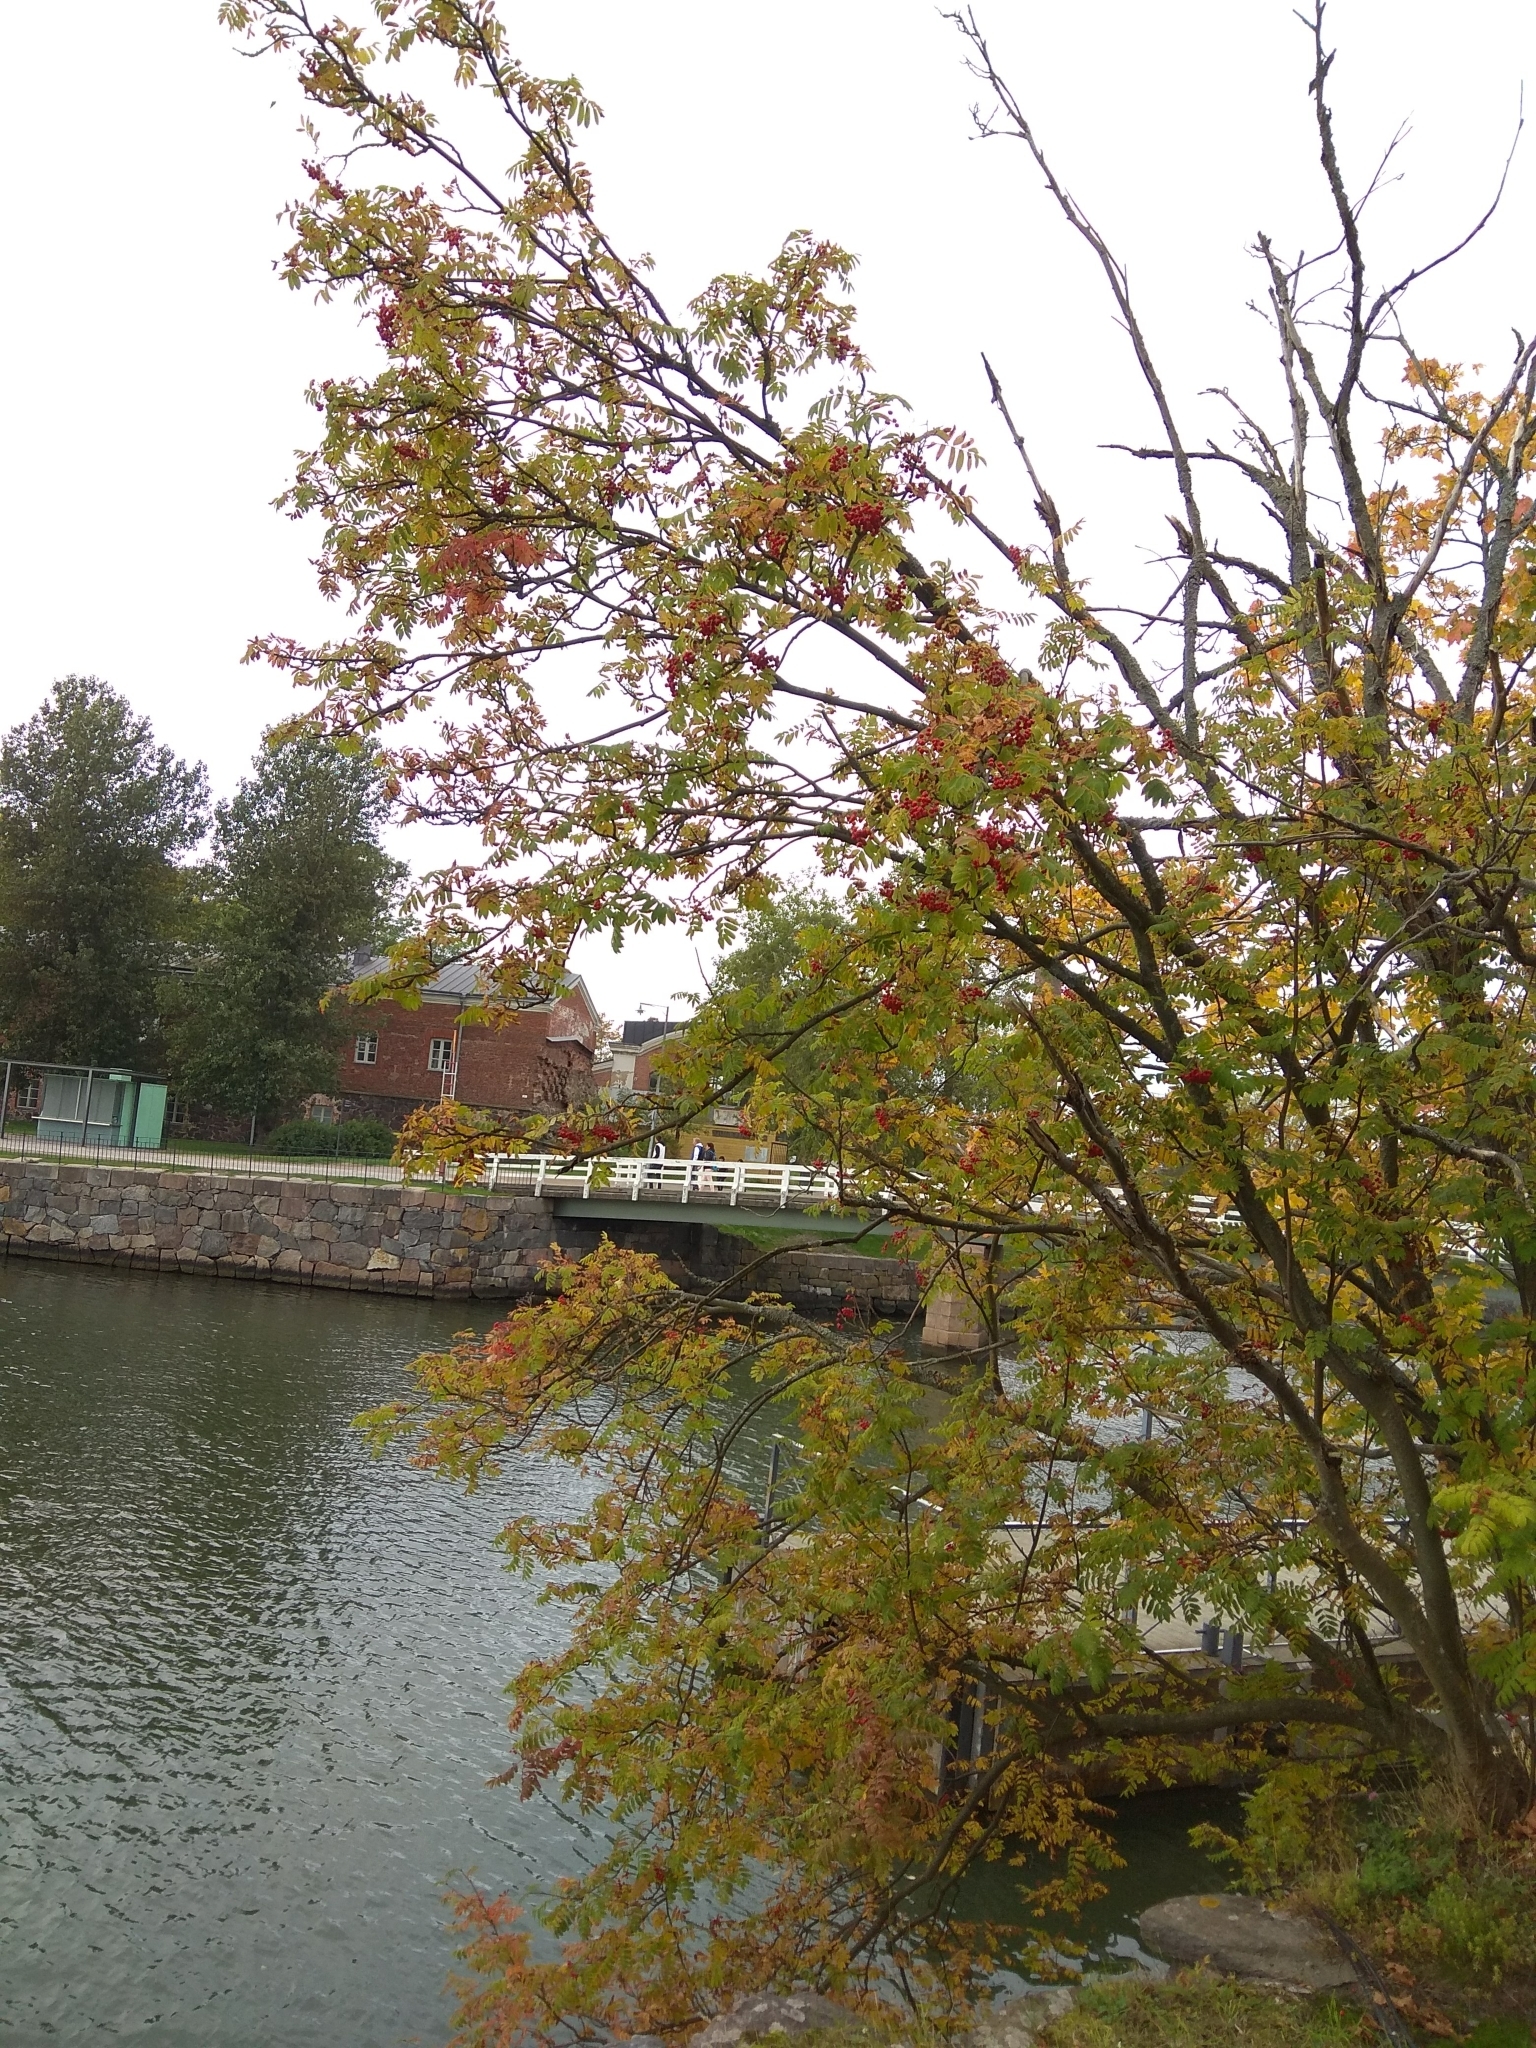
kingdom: Plantae
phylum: Tracheophyta
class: Magnoliopsida
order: Rosales
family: Rosaceae
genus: Sorbus
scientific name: Sorbus aucuparia
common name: Rowan
